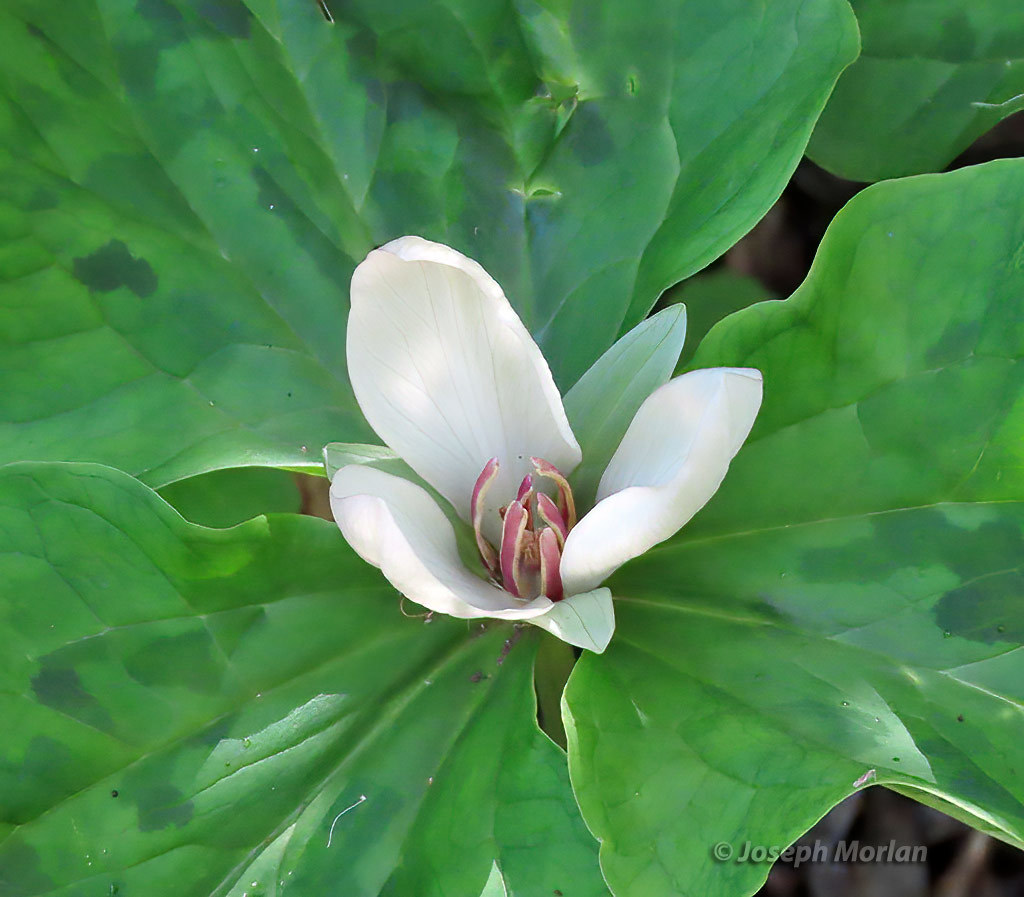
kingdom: Plantae
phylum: Tracheophyta
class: Liliopsida
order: Liliales
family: Melanthiaceae
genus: Trillium
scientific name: Trillium chloropetalum
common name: Giant trillium
